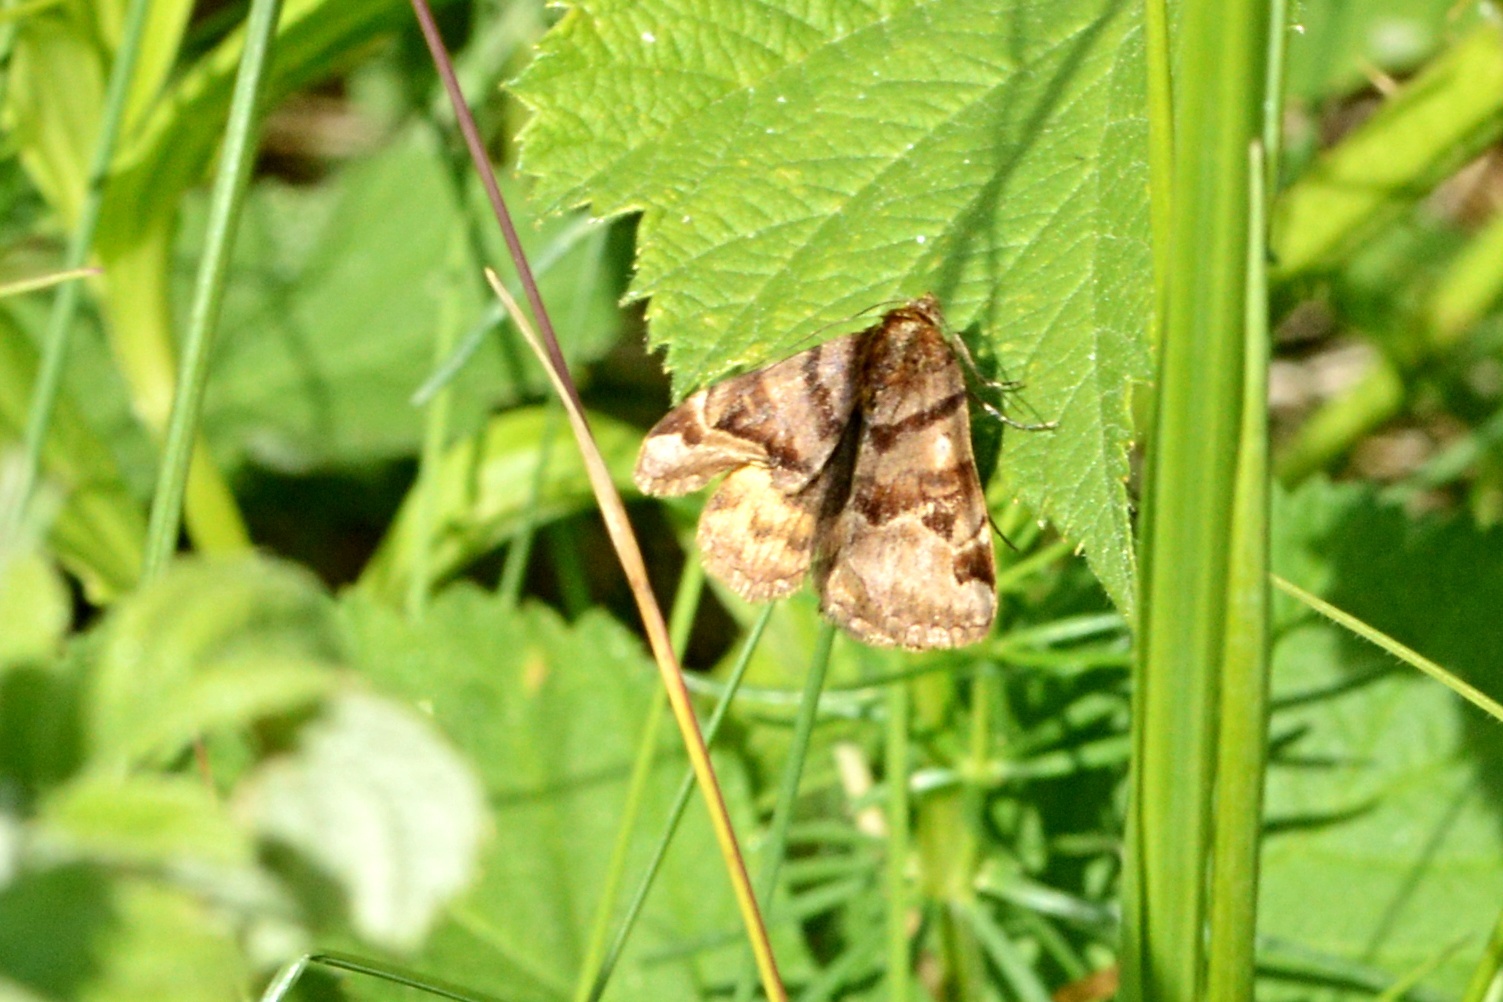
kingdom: Animalia
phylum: Arthropoda
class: Insecta
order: Lepidoptera
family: Erebidae
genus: Euclidia
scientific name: Euclidia glyphica
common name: Burnet companion
